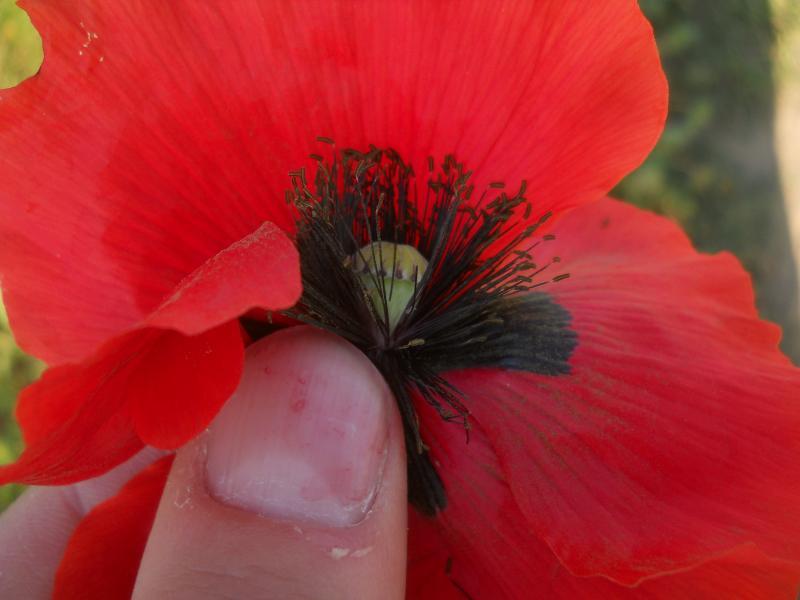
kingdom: Plantae
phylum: Tracheophyta
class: Magnoliopsida
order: Ranunculales
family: Papaveraceae
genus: Papaver
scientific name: Papaver rhoeas
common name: Corn poppy
